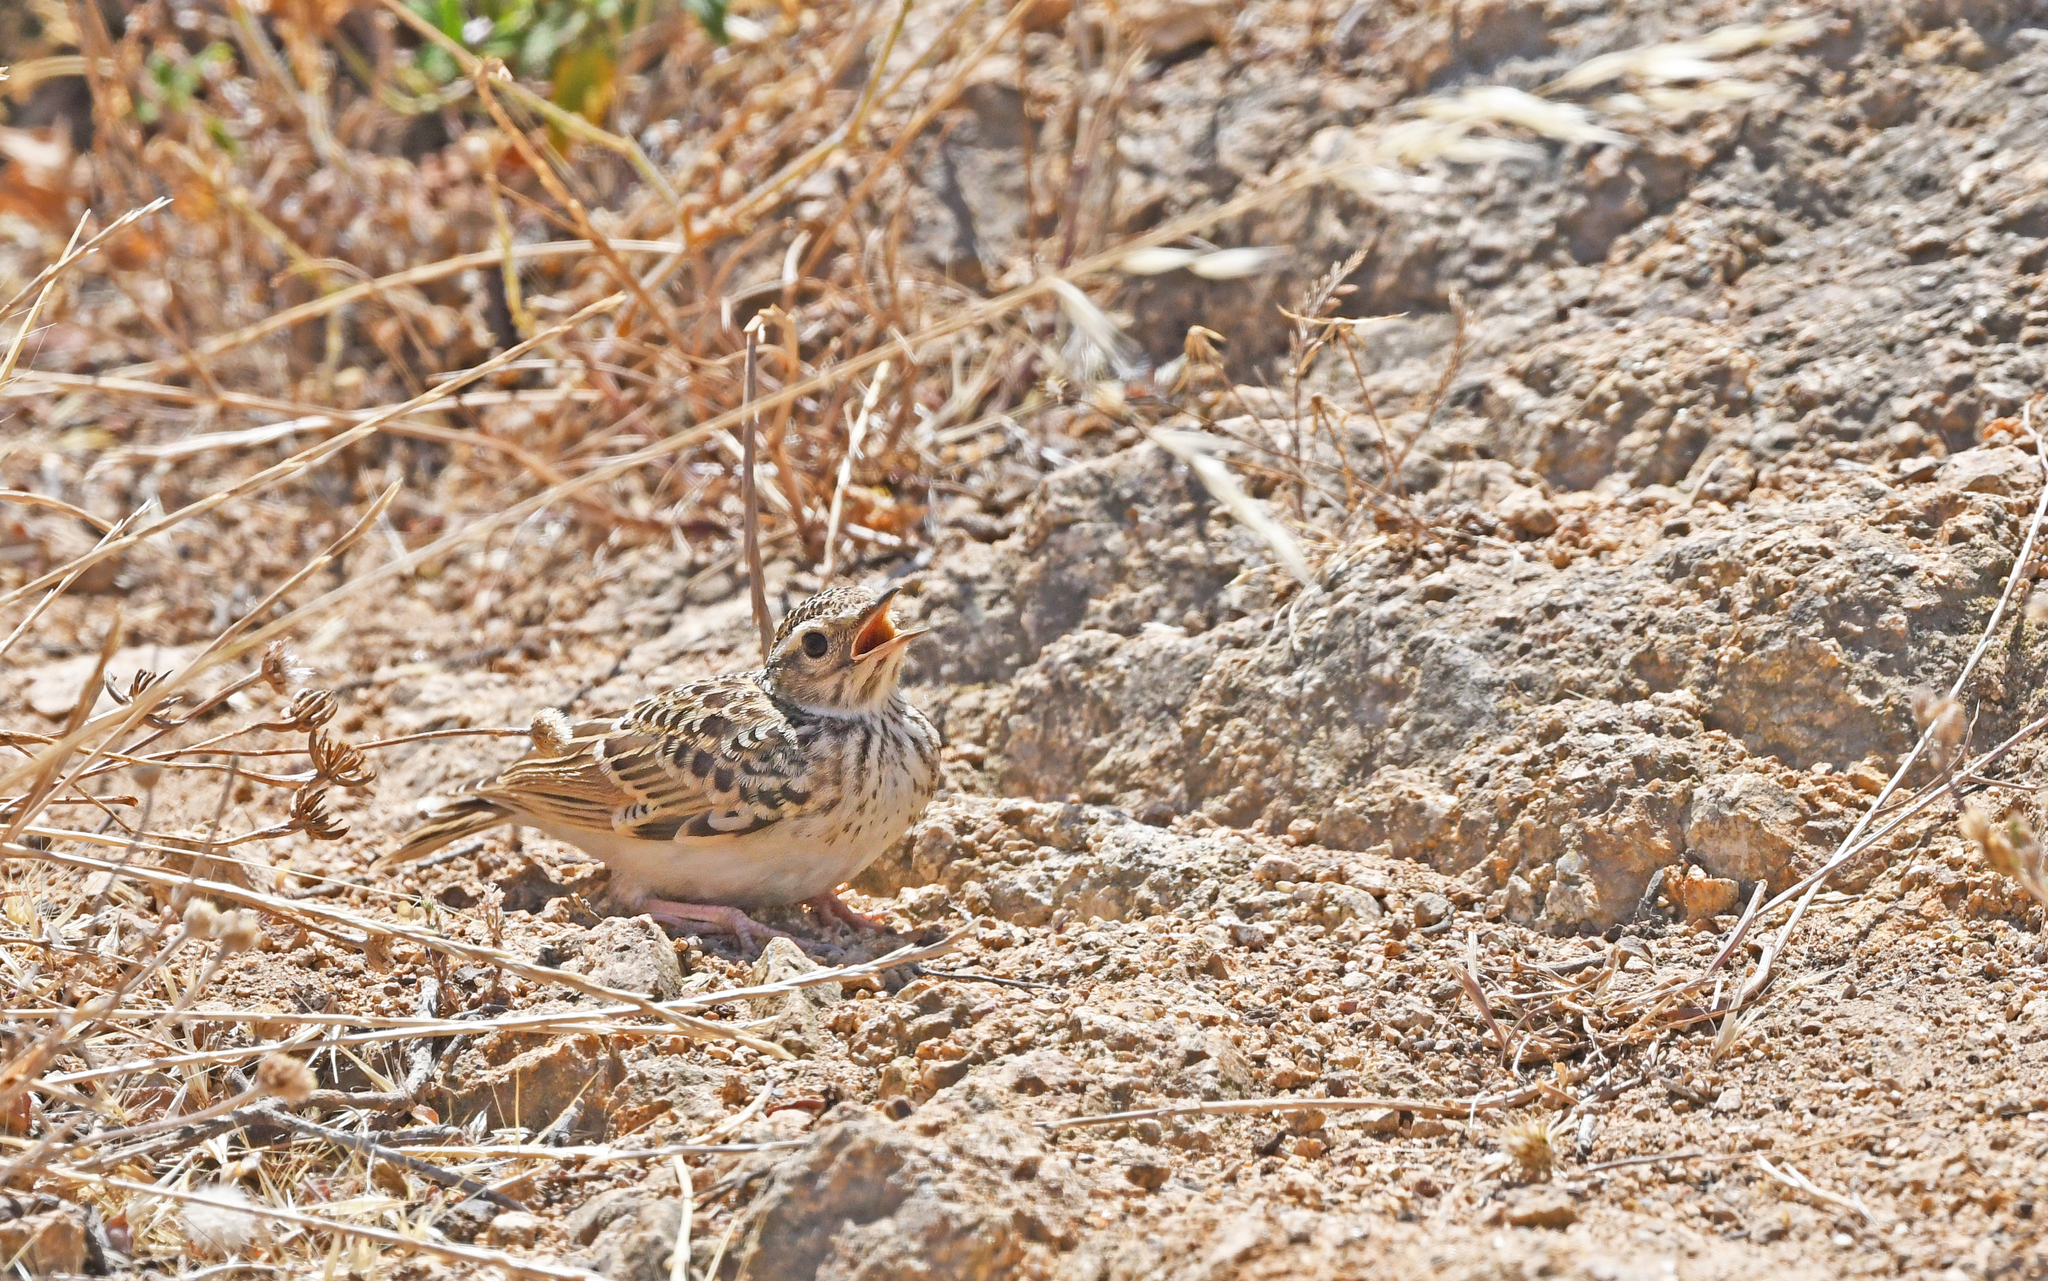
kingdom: Animalia
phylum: Chordata
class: Aves
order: Passeriformes
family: Alaudidae
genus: Lullula
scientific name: Lullula arborea
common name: Woodlark
